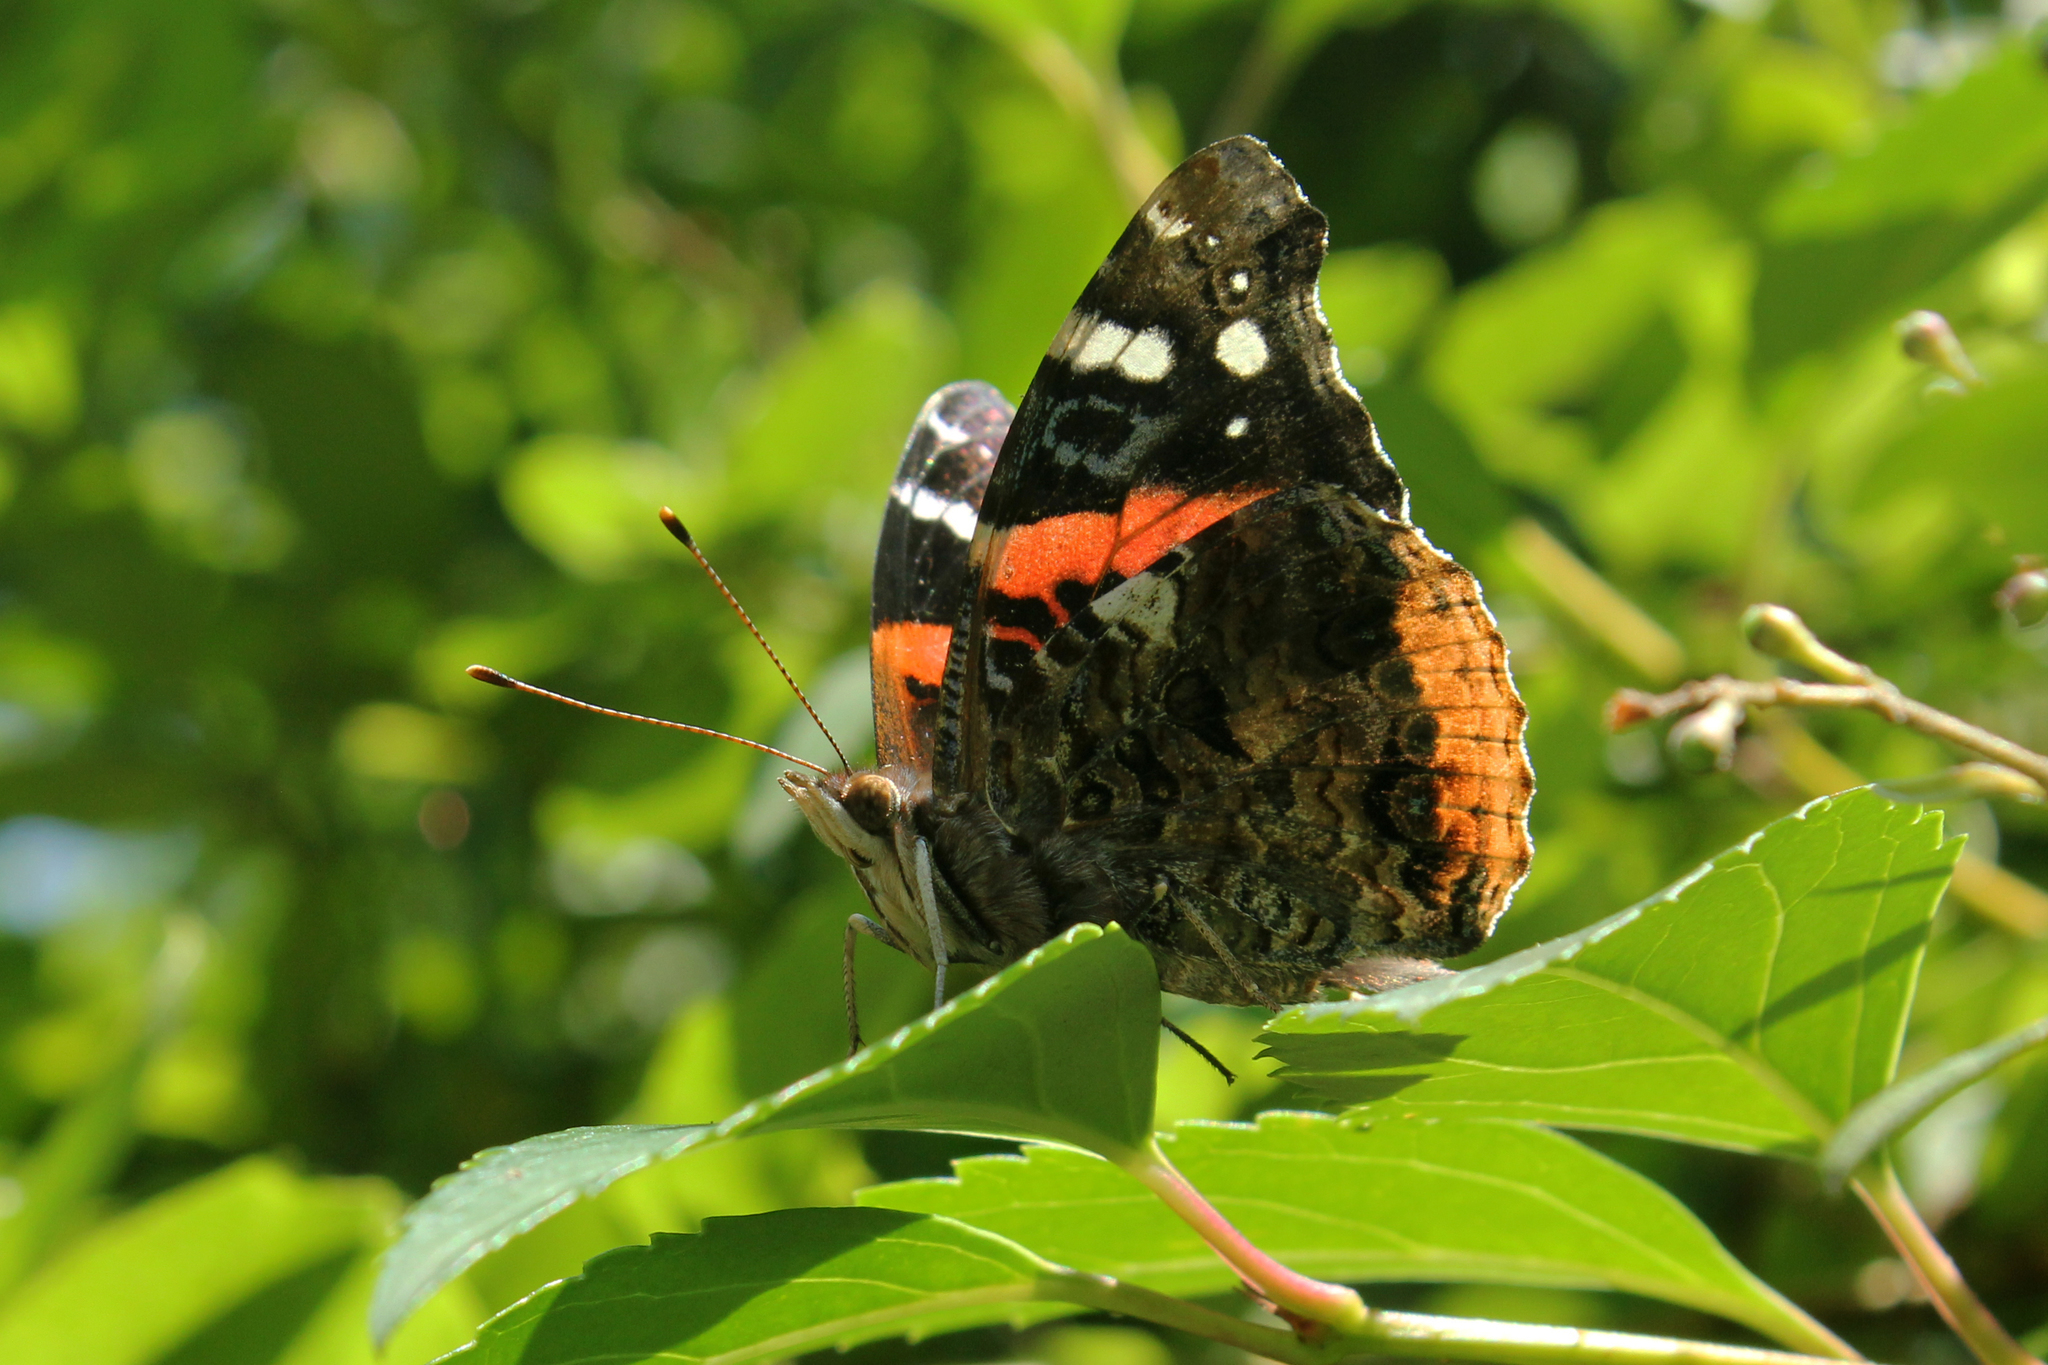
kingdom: Animalia
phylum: Arthropoda
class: Insecta
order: Lepidoptera
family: Nymphalidae
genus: Vanessa
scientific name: Vanessa atalanta
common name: Red admiral
